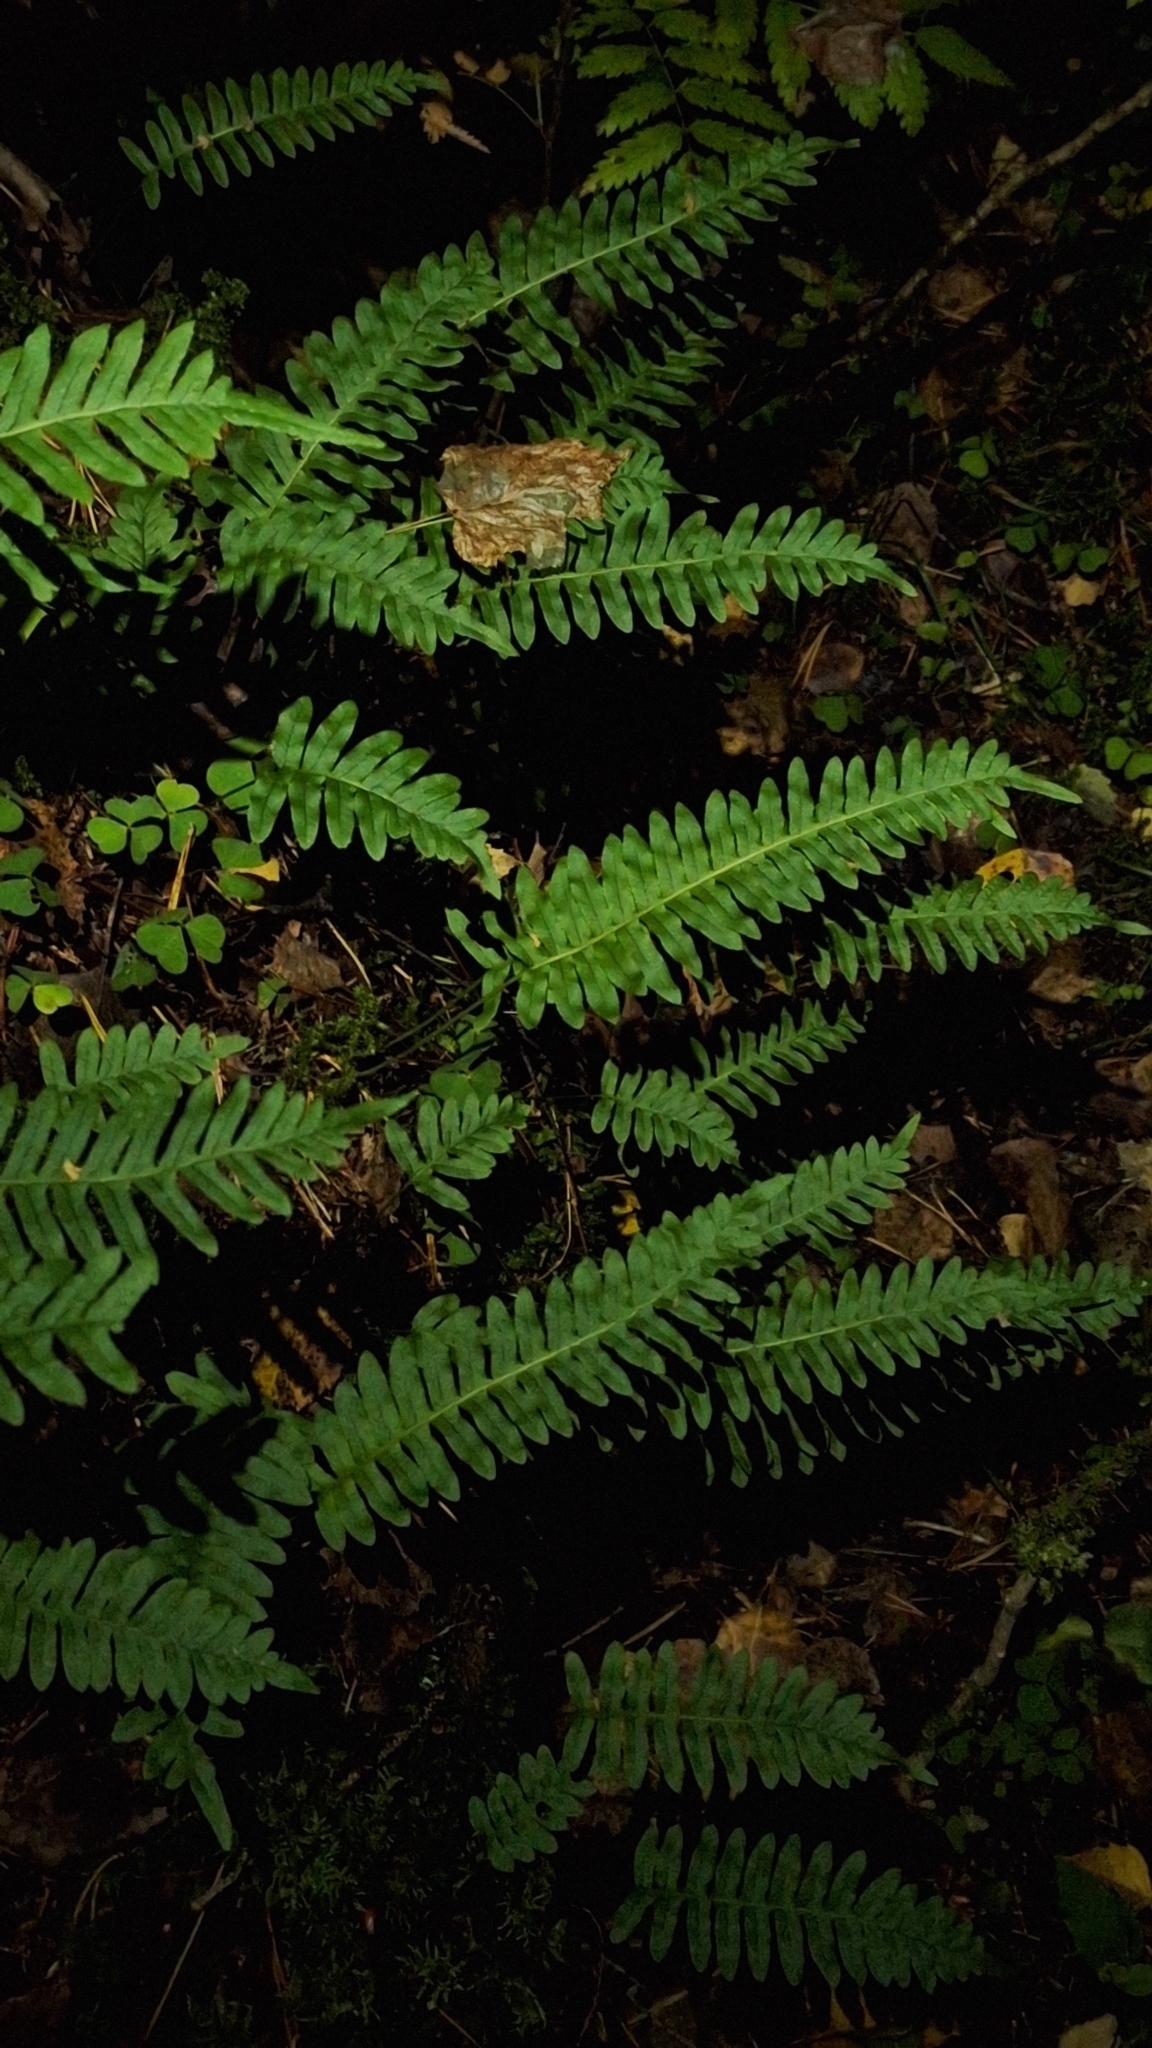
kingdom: Plantae
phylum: Tracheophyta
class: Polypodiopsida
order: Polypodiales
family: Polypodiaceae
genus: Polypodium
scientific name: Polypodium vulgare
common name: Common polypody
